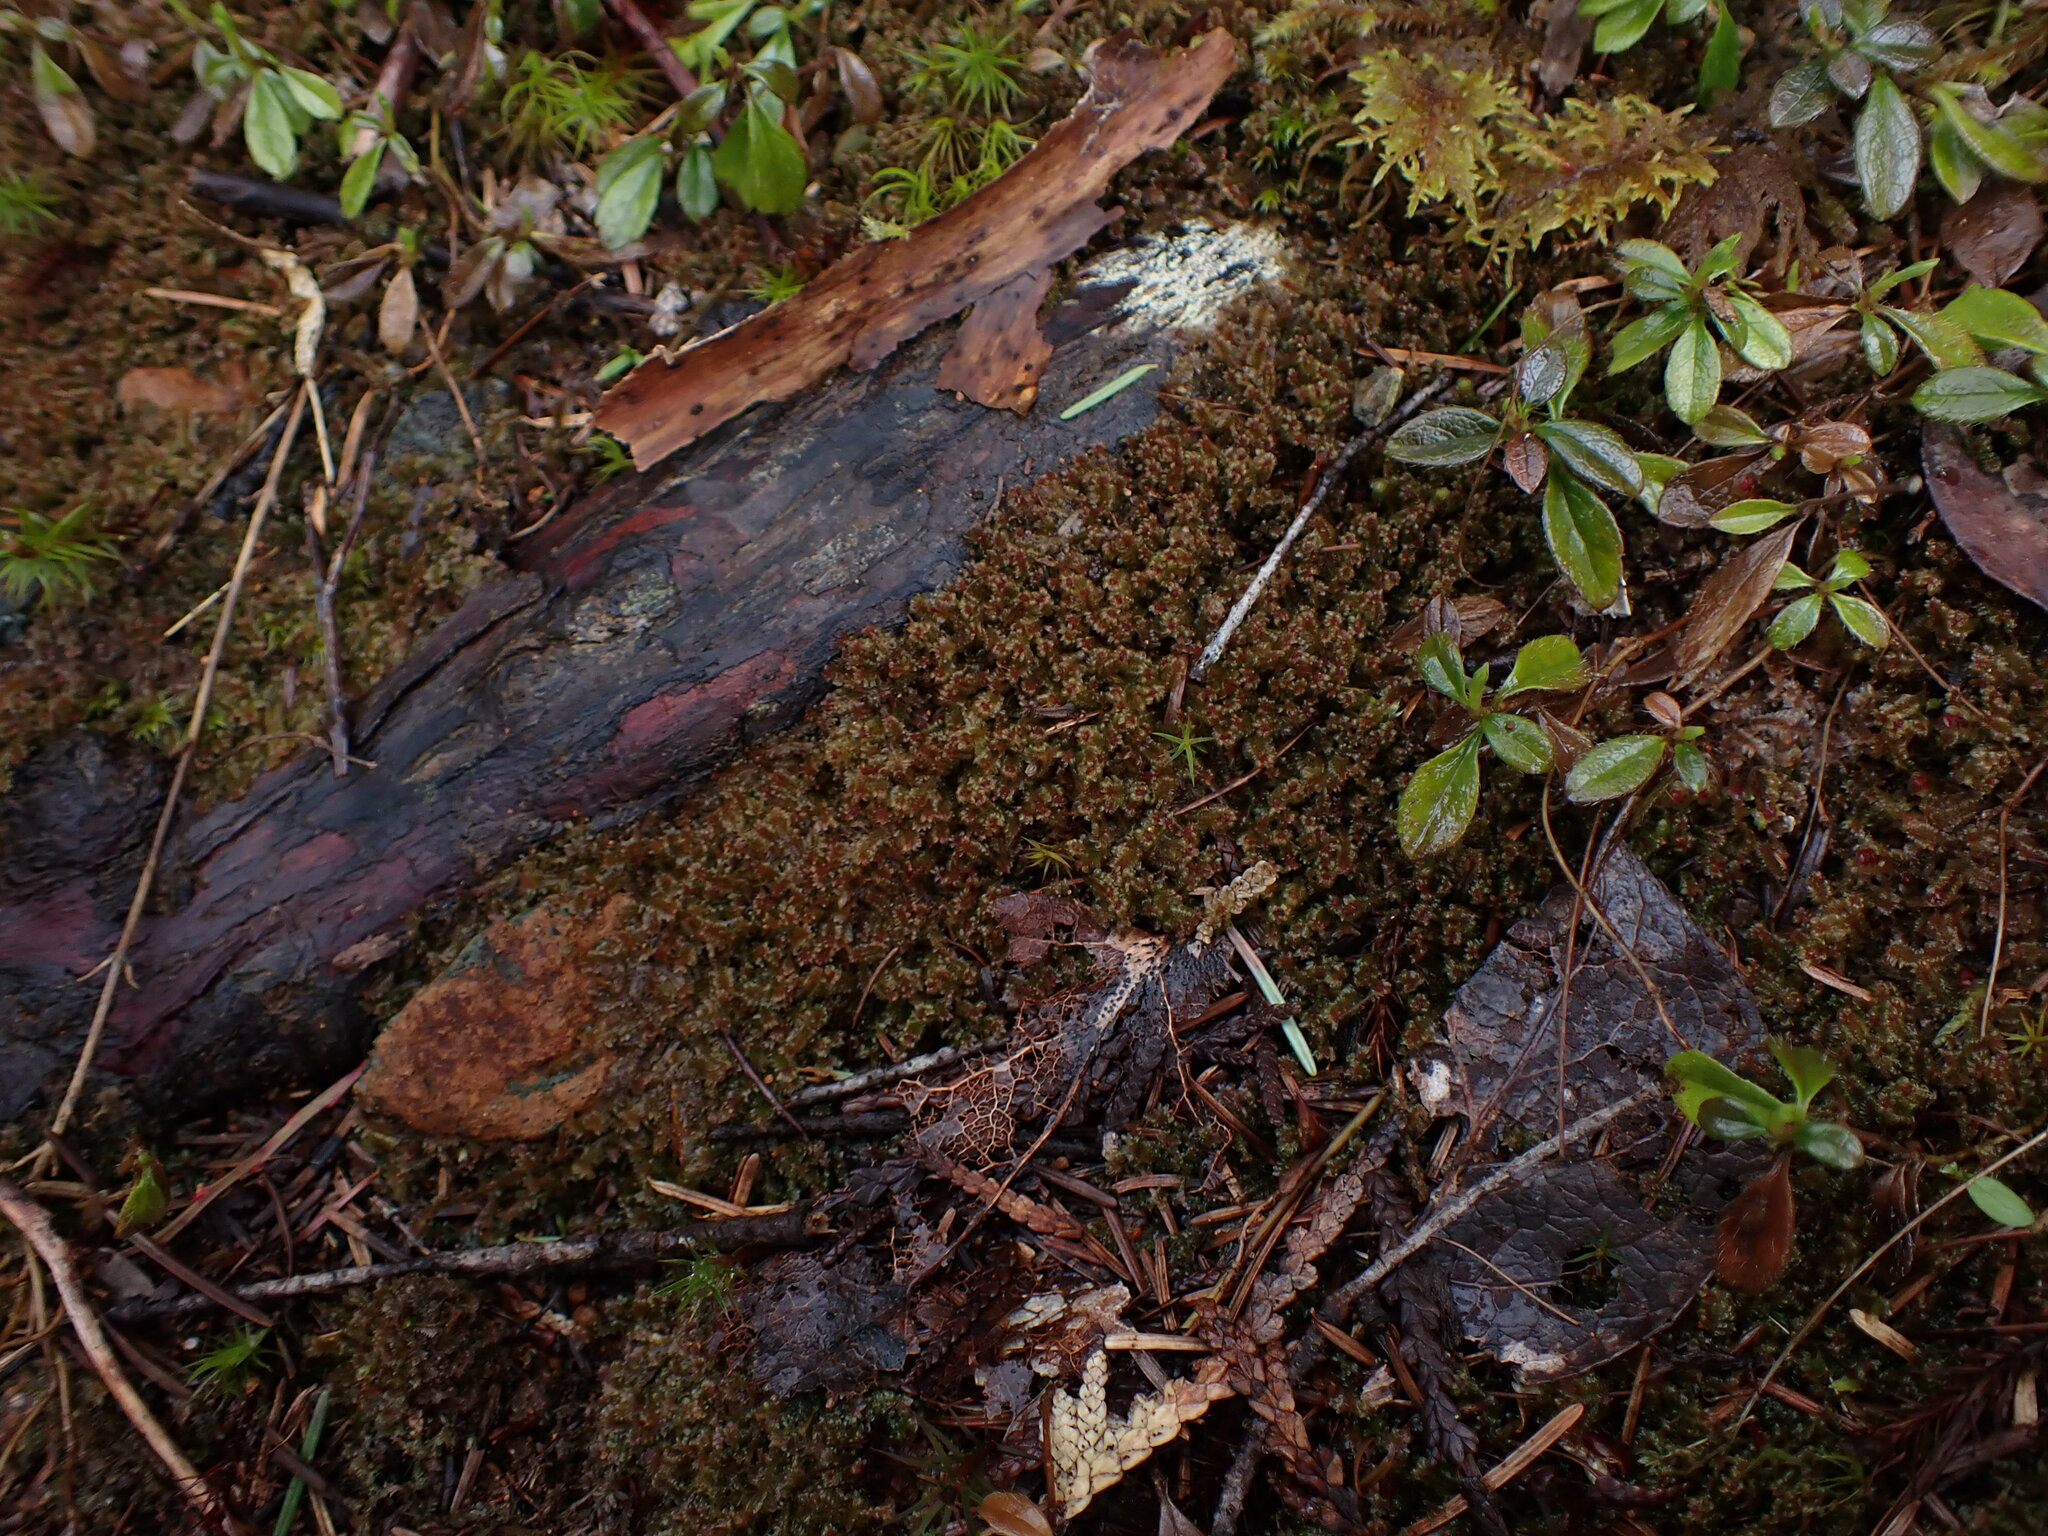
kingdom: Plantae
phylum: Marchantiophyta
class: Jungermanniopsida
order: Jungermanniales
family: Scapaniaceae
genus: Diplophyllum
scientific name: Diplophyllum albicans
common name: White earwort
